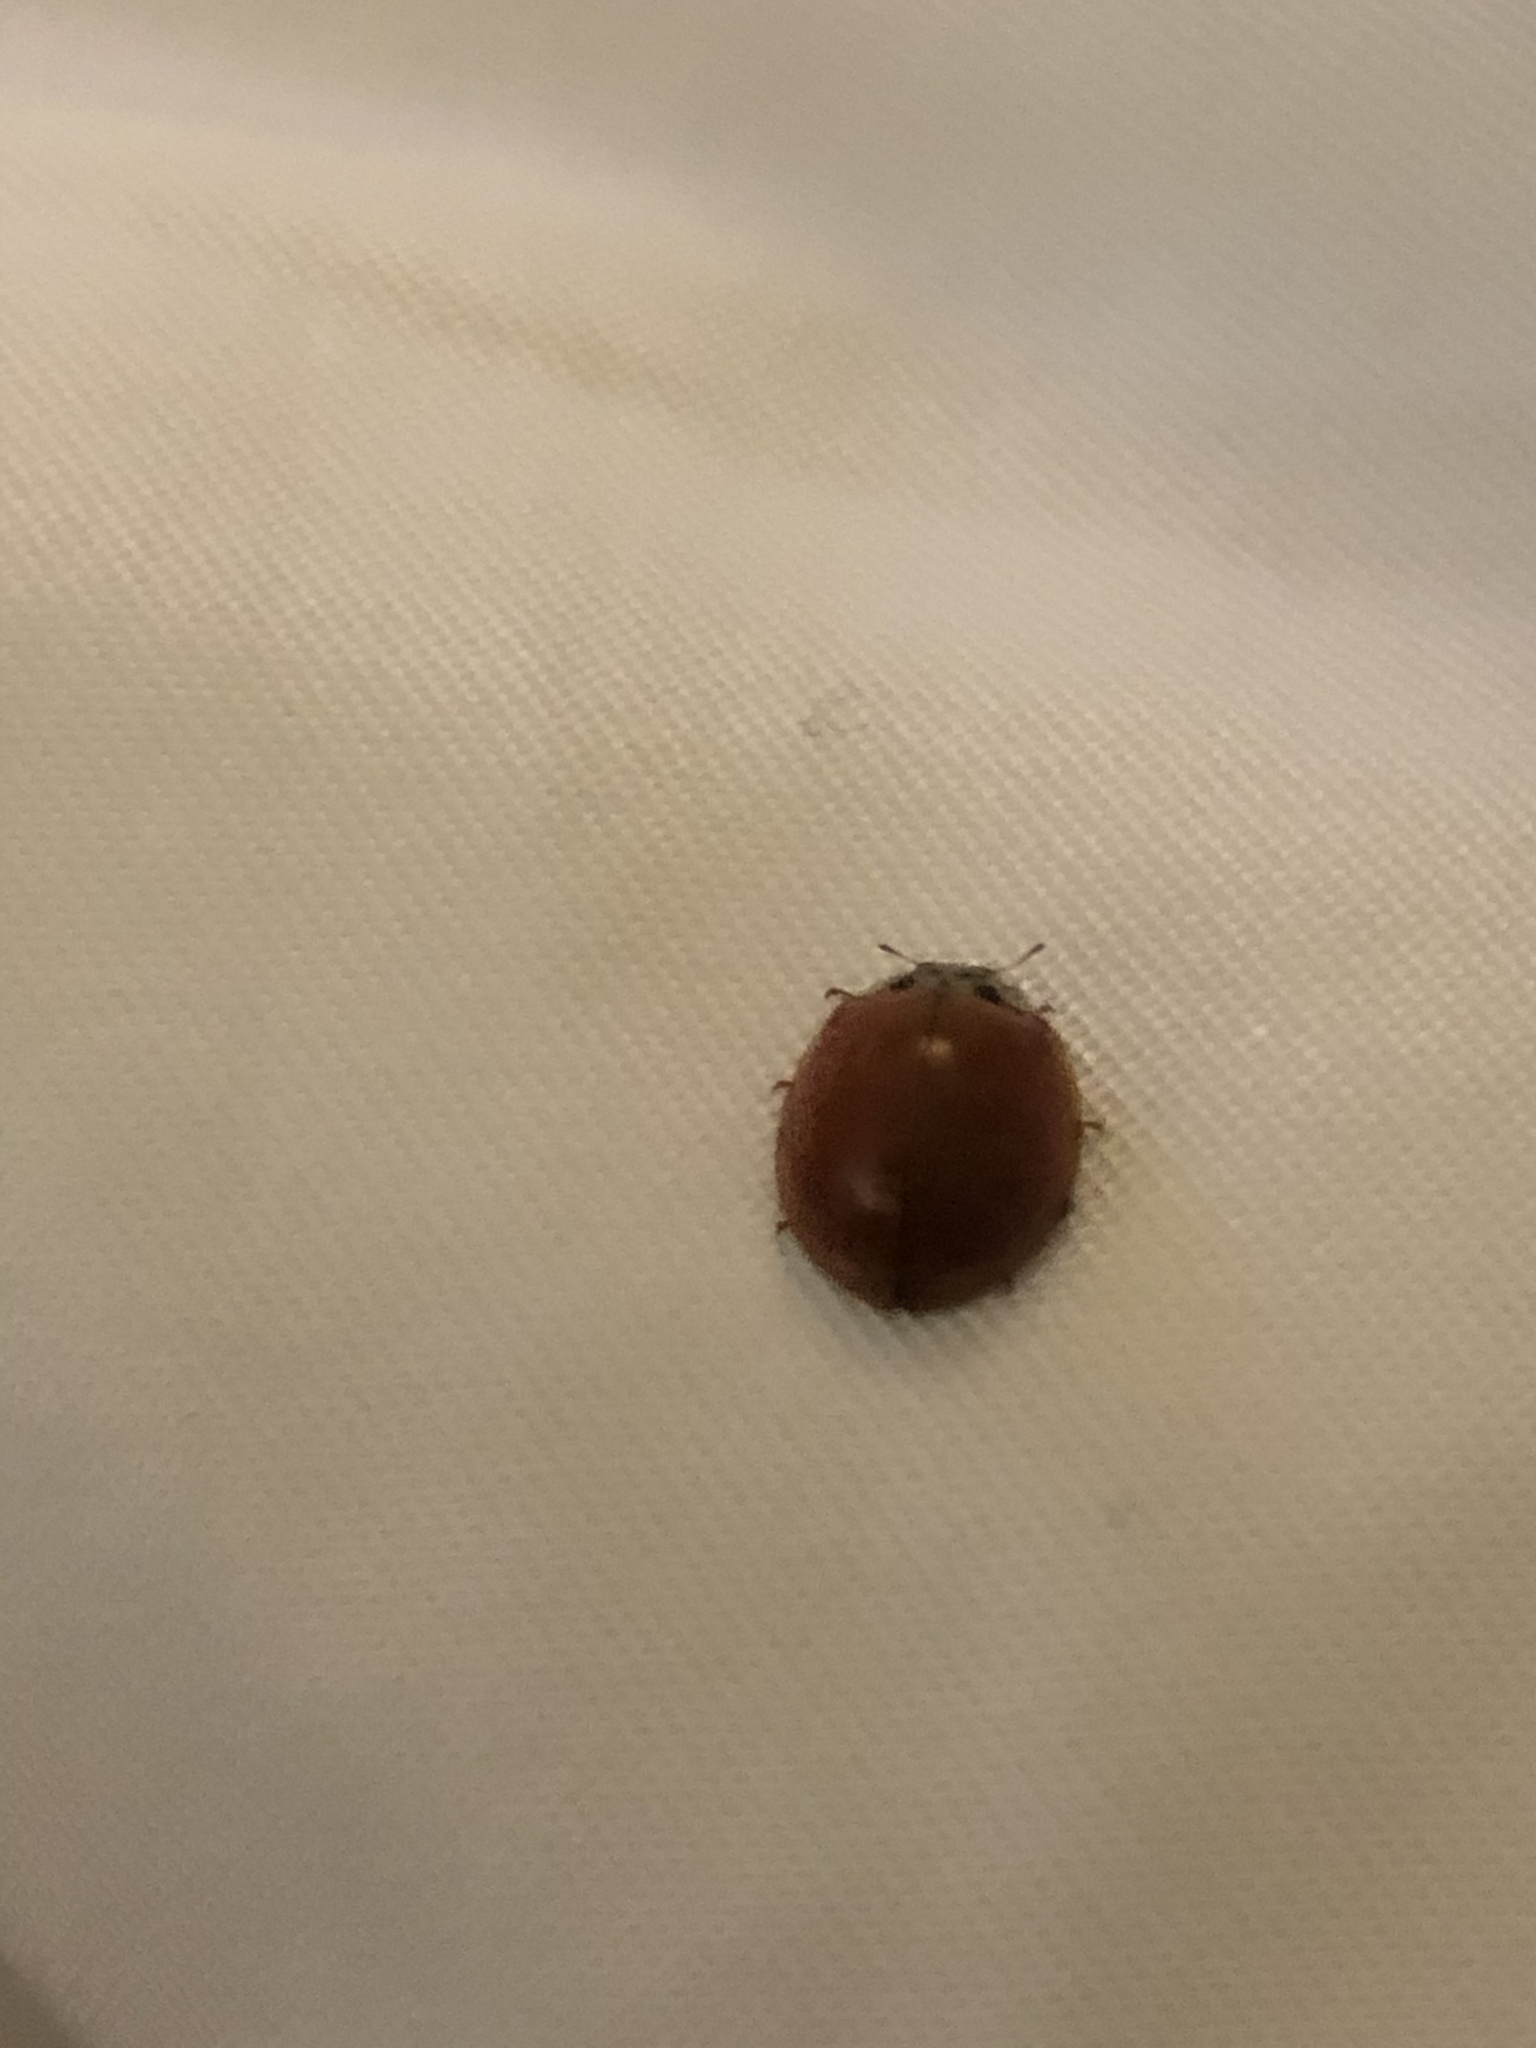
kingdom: Animalia
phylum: Arthropoda
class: Insecta
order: Coleoptera
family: Coccinellidae
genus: Harmonia
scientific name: Harmonia axyridis
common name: Harlequin ladybird
